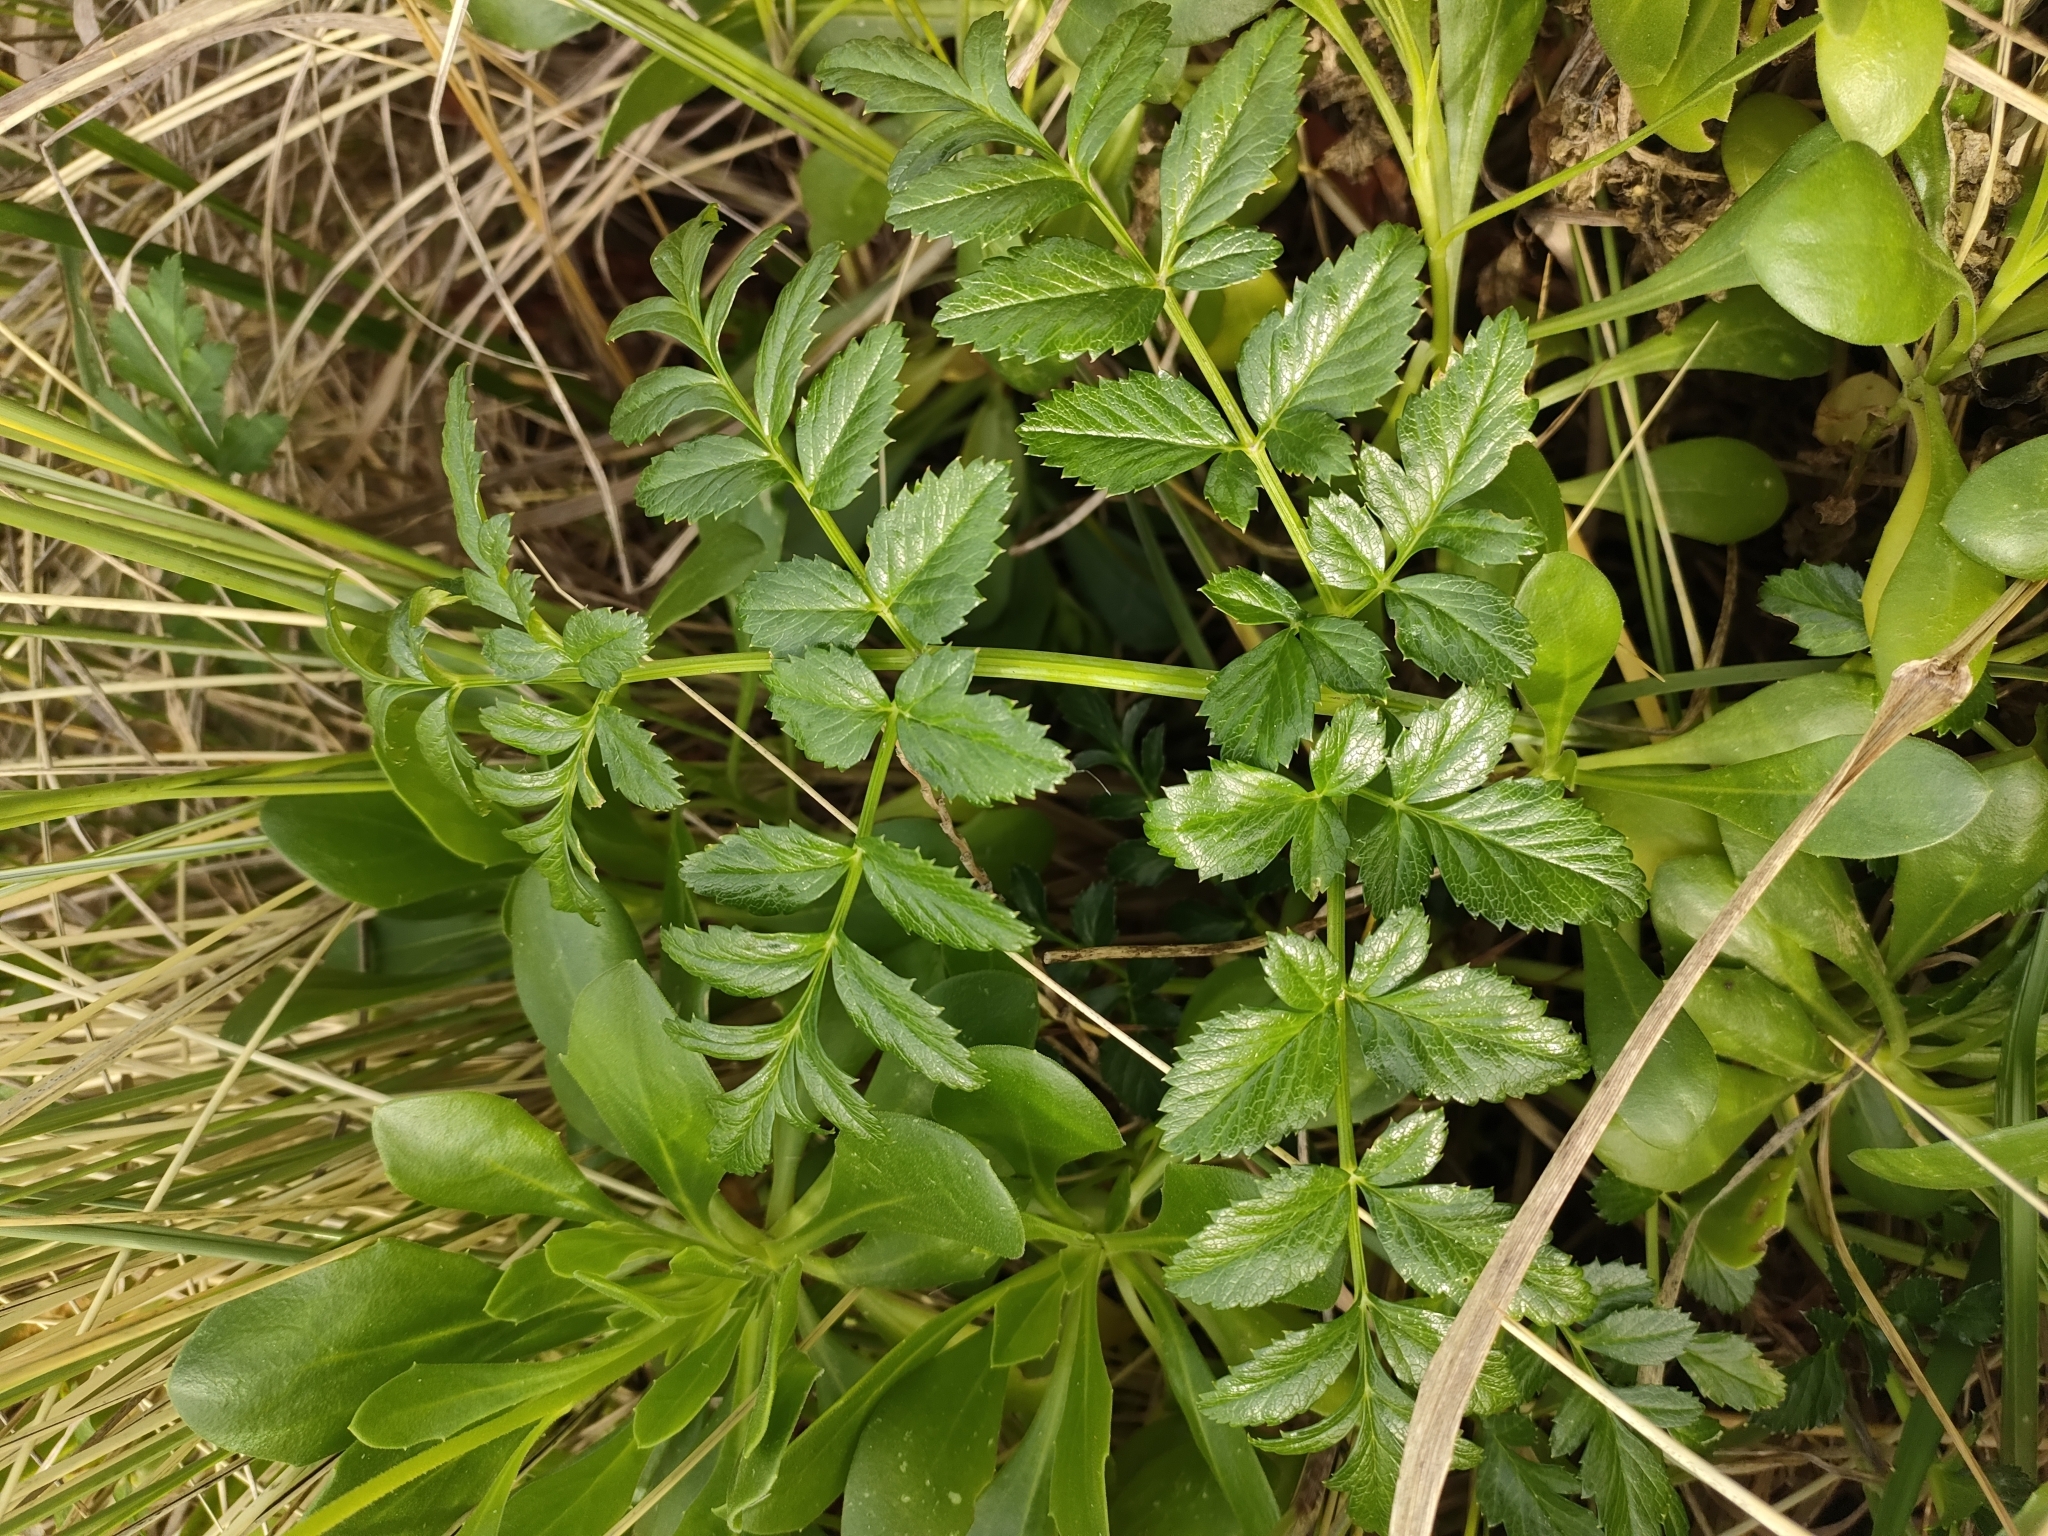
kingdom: Plantae
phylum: Tracheophyta
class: Magnoliopsida
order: Apiales
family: Apiaceae
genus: Angelica
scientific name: Angelica pachycarpa
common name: Portuguese angelica
